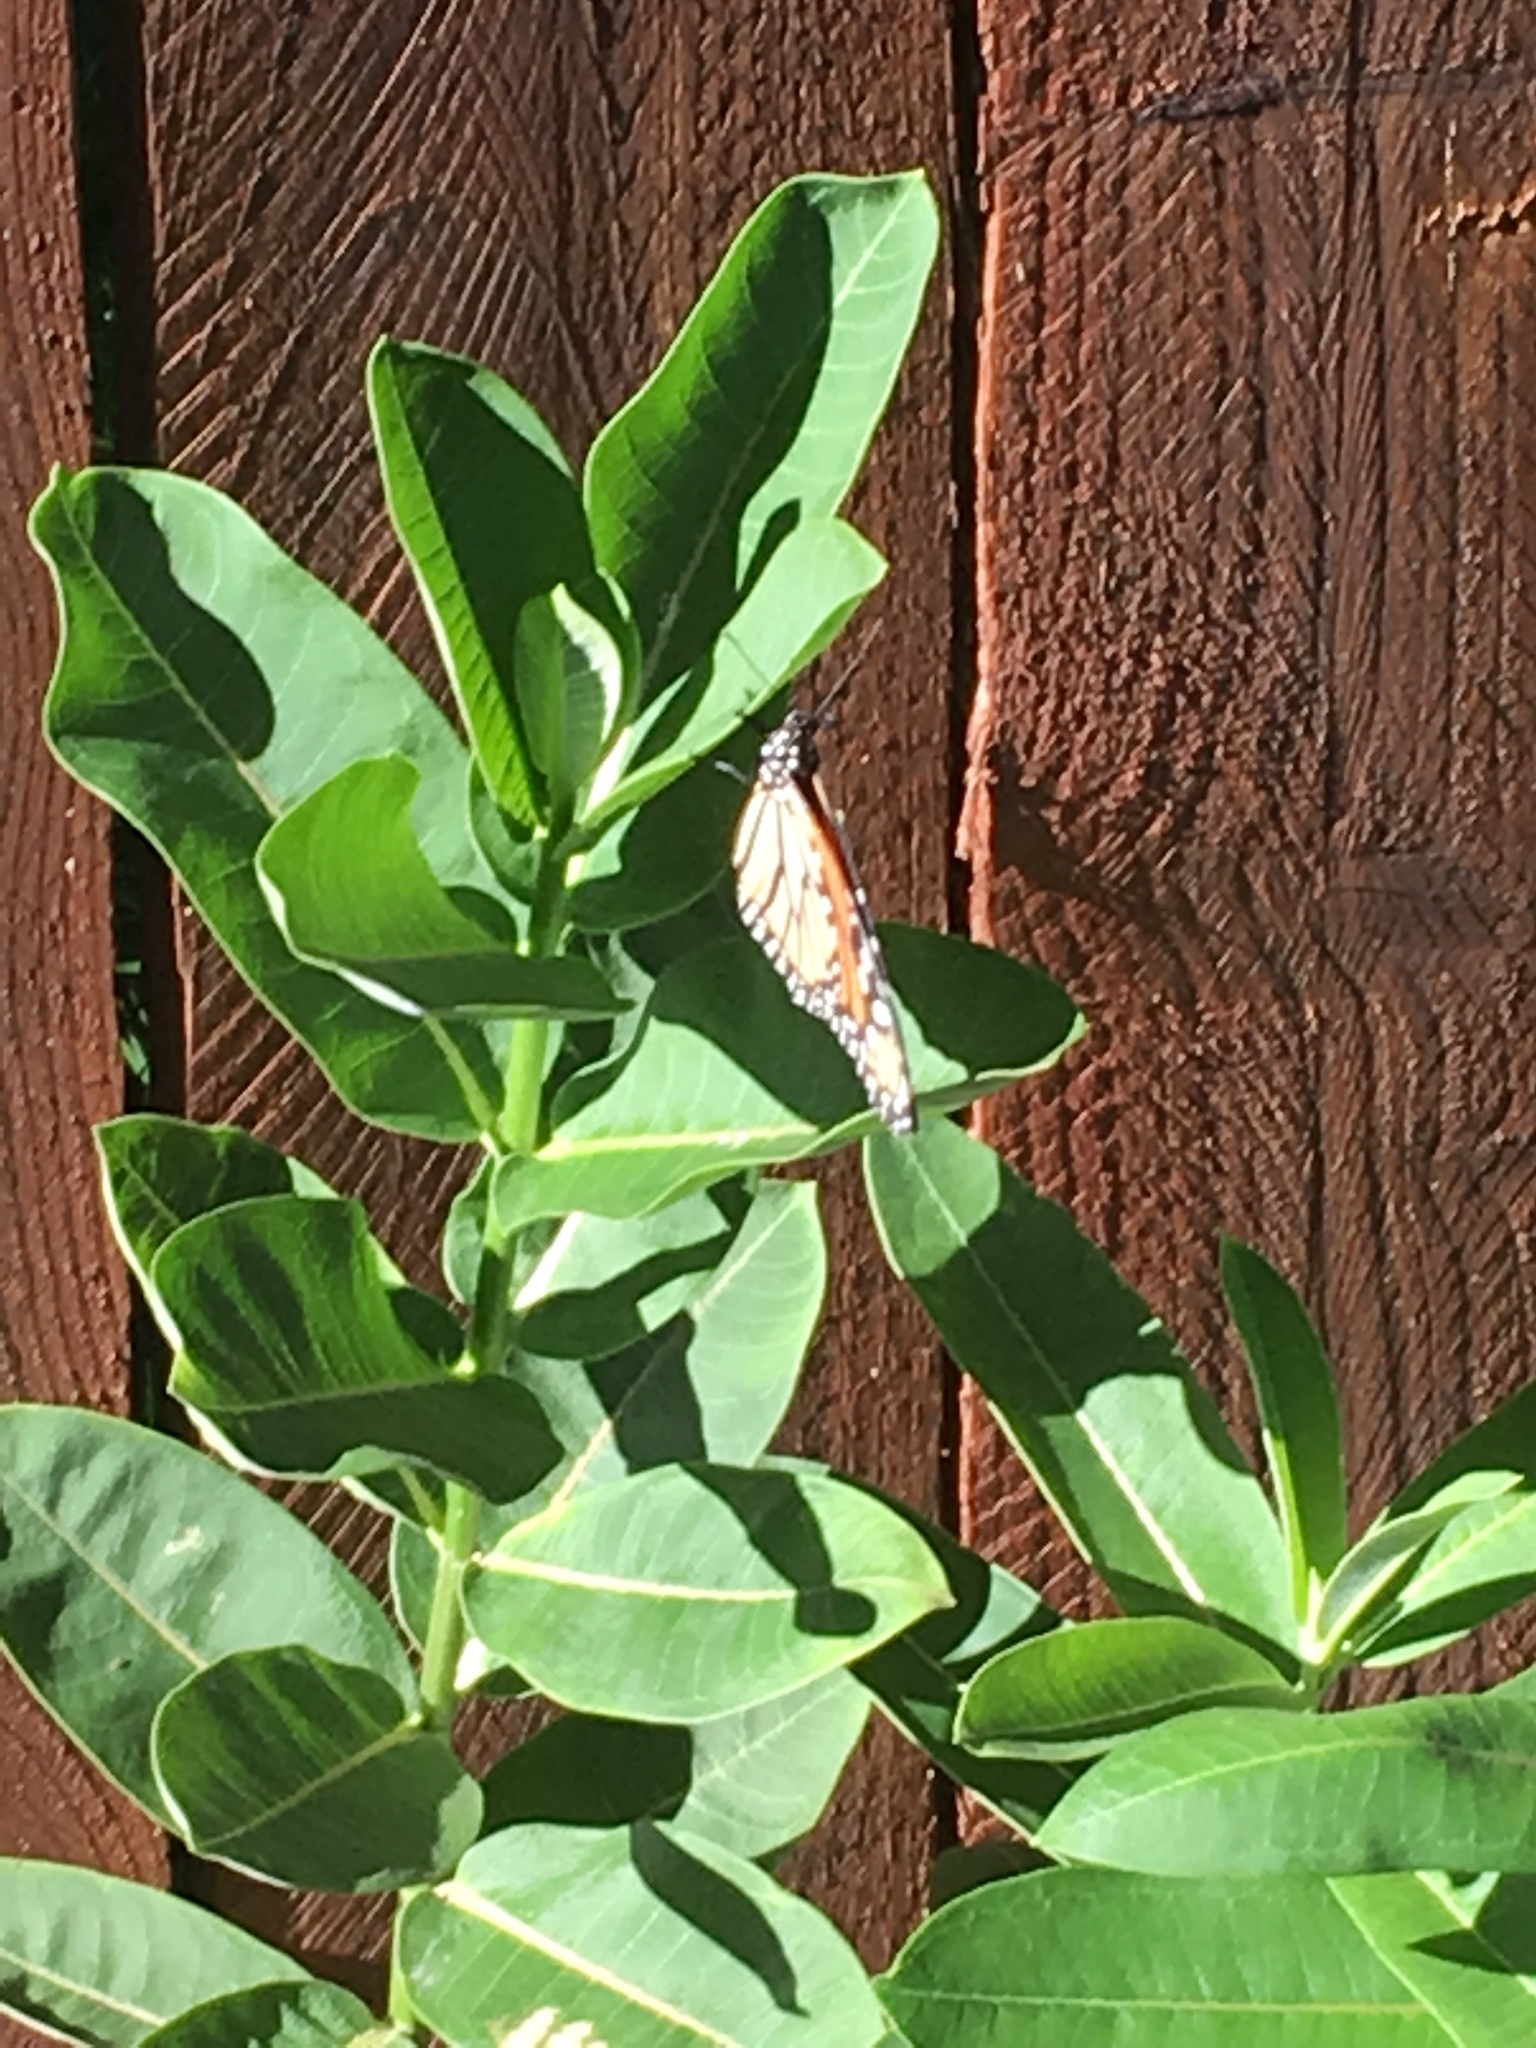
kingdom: Animalia
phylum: Arthropoda
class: Insecta
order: Lepidoptera
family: Nymphalidae
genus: Danaus
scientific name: Danaus plexippus
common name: Monarch
